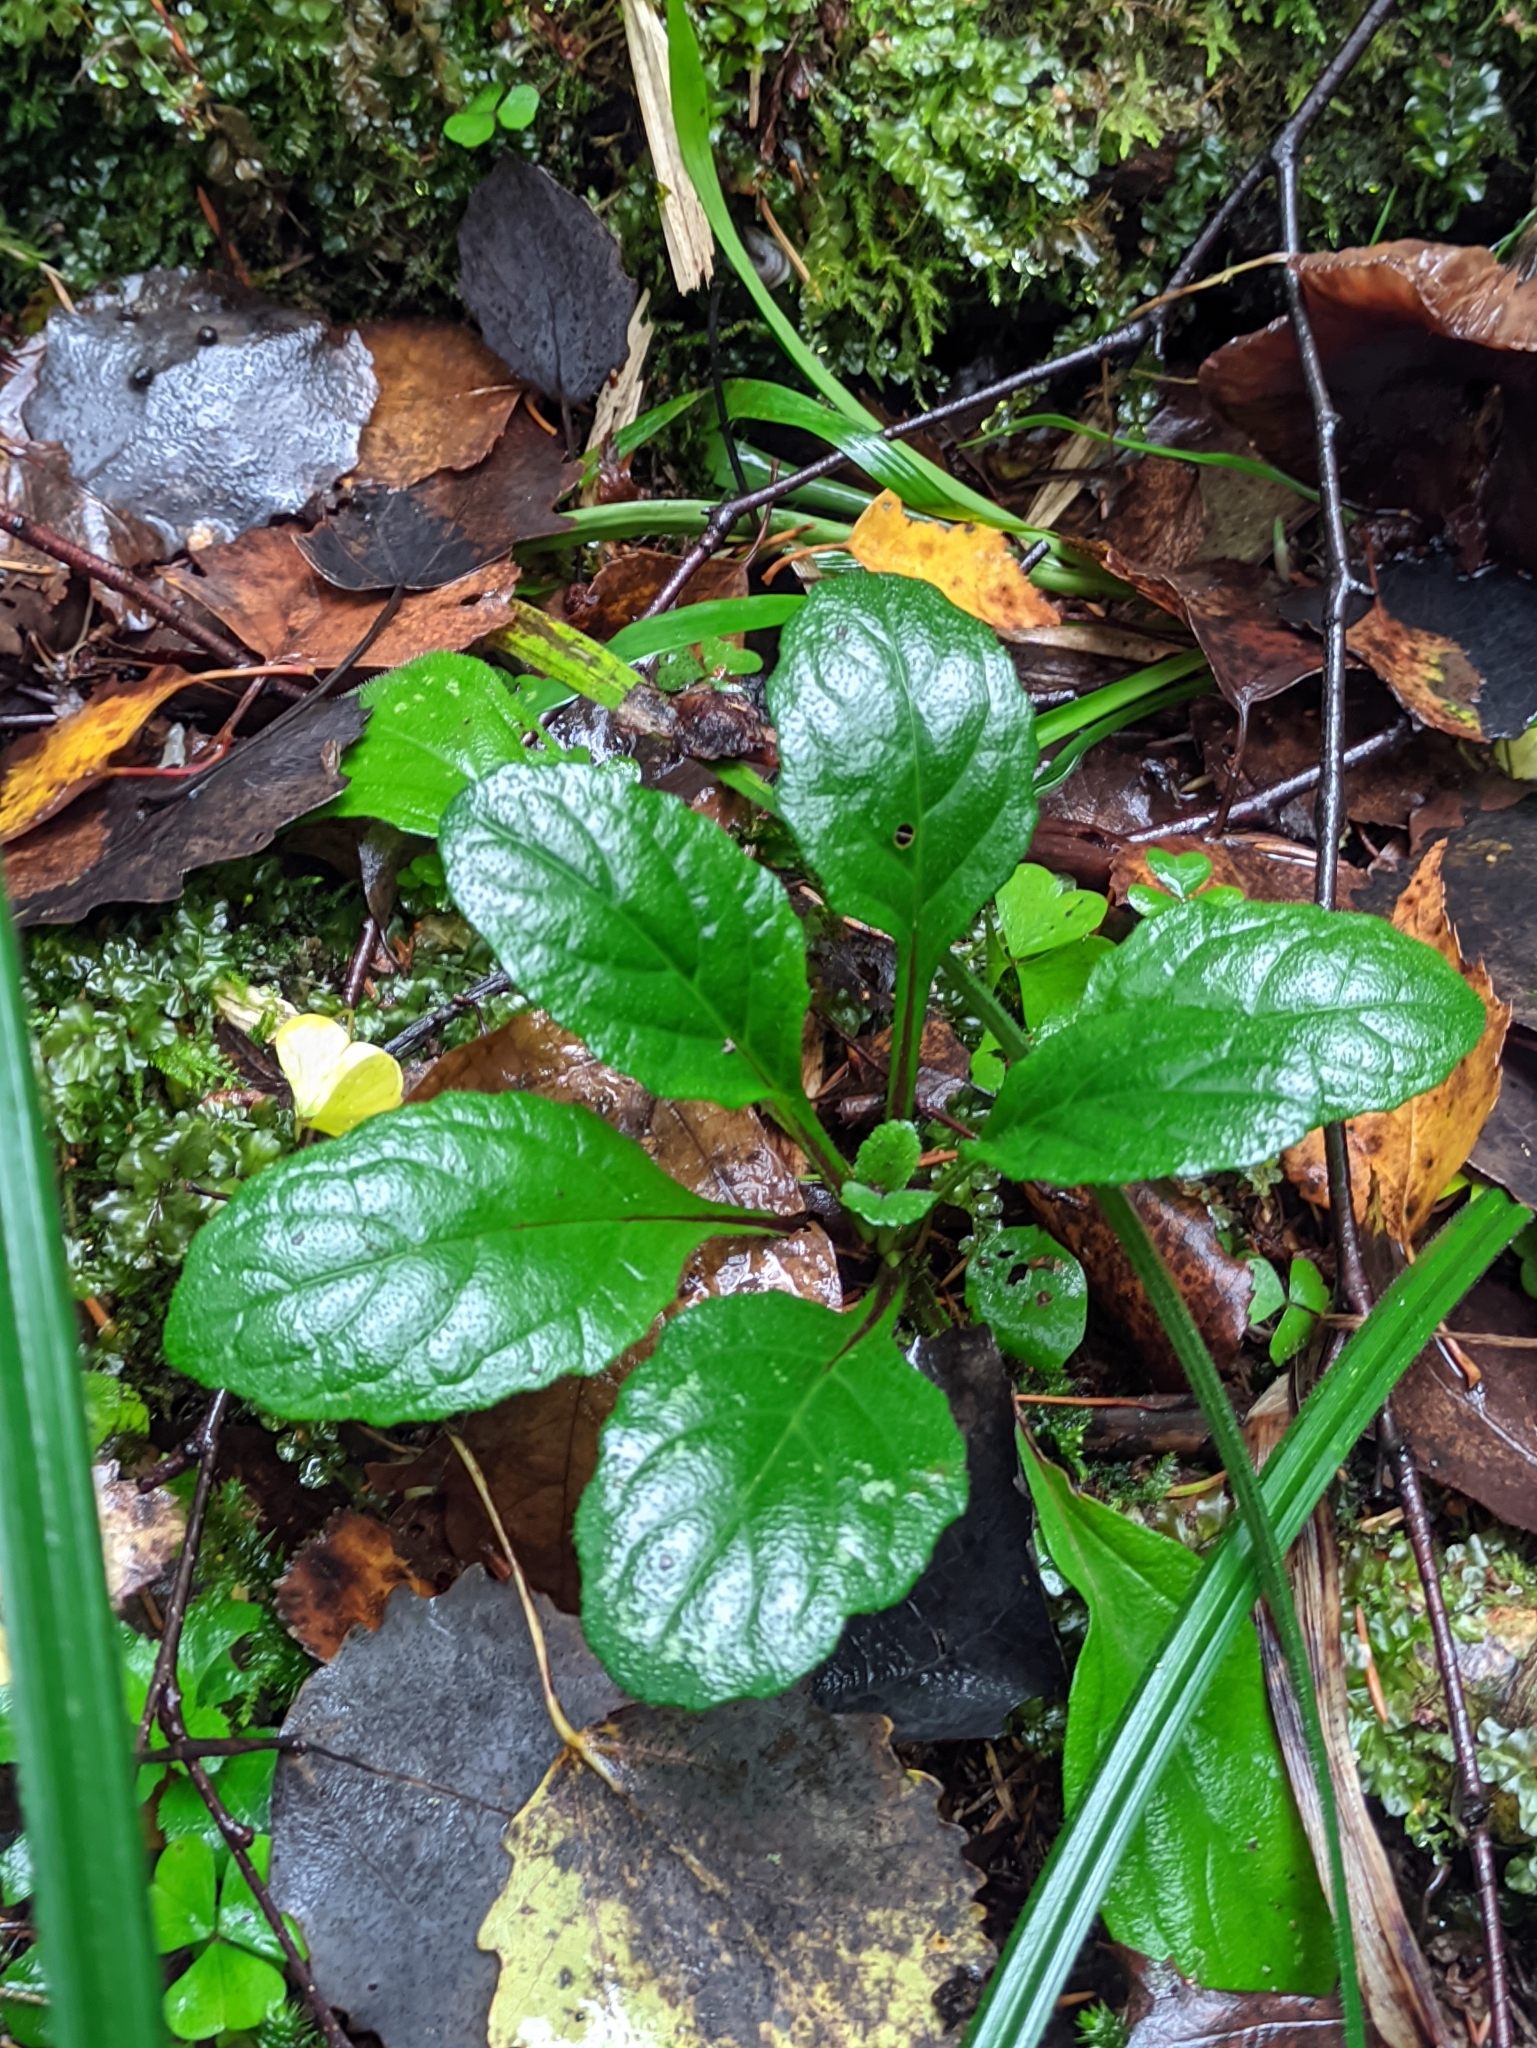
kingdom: Plantae
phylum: Tracheophyta
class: Magnoliopsida
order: Lamiales
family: Lamiaceae
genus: Ajuga
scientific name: Ajuga reptans
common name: Bugle
